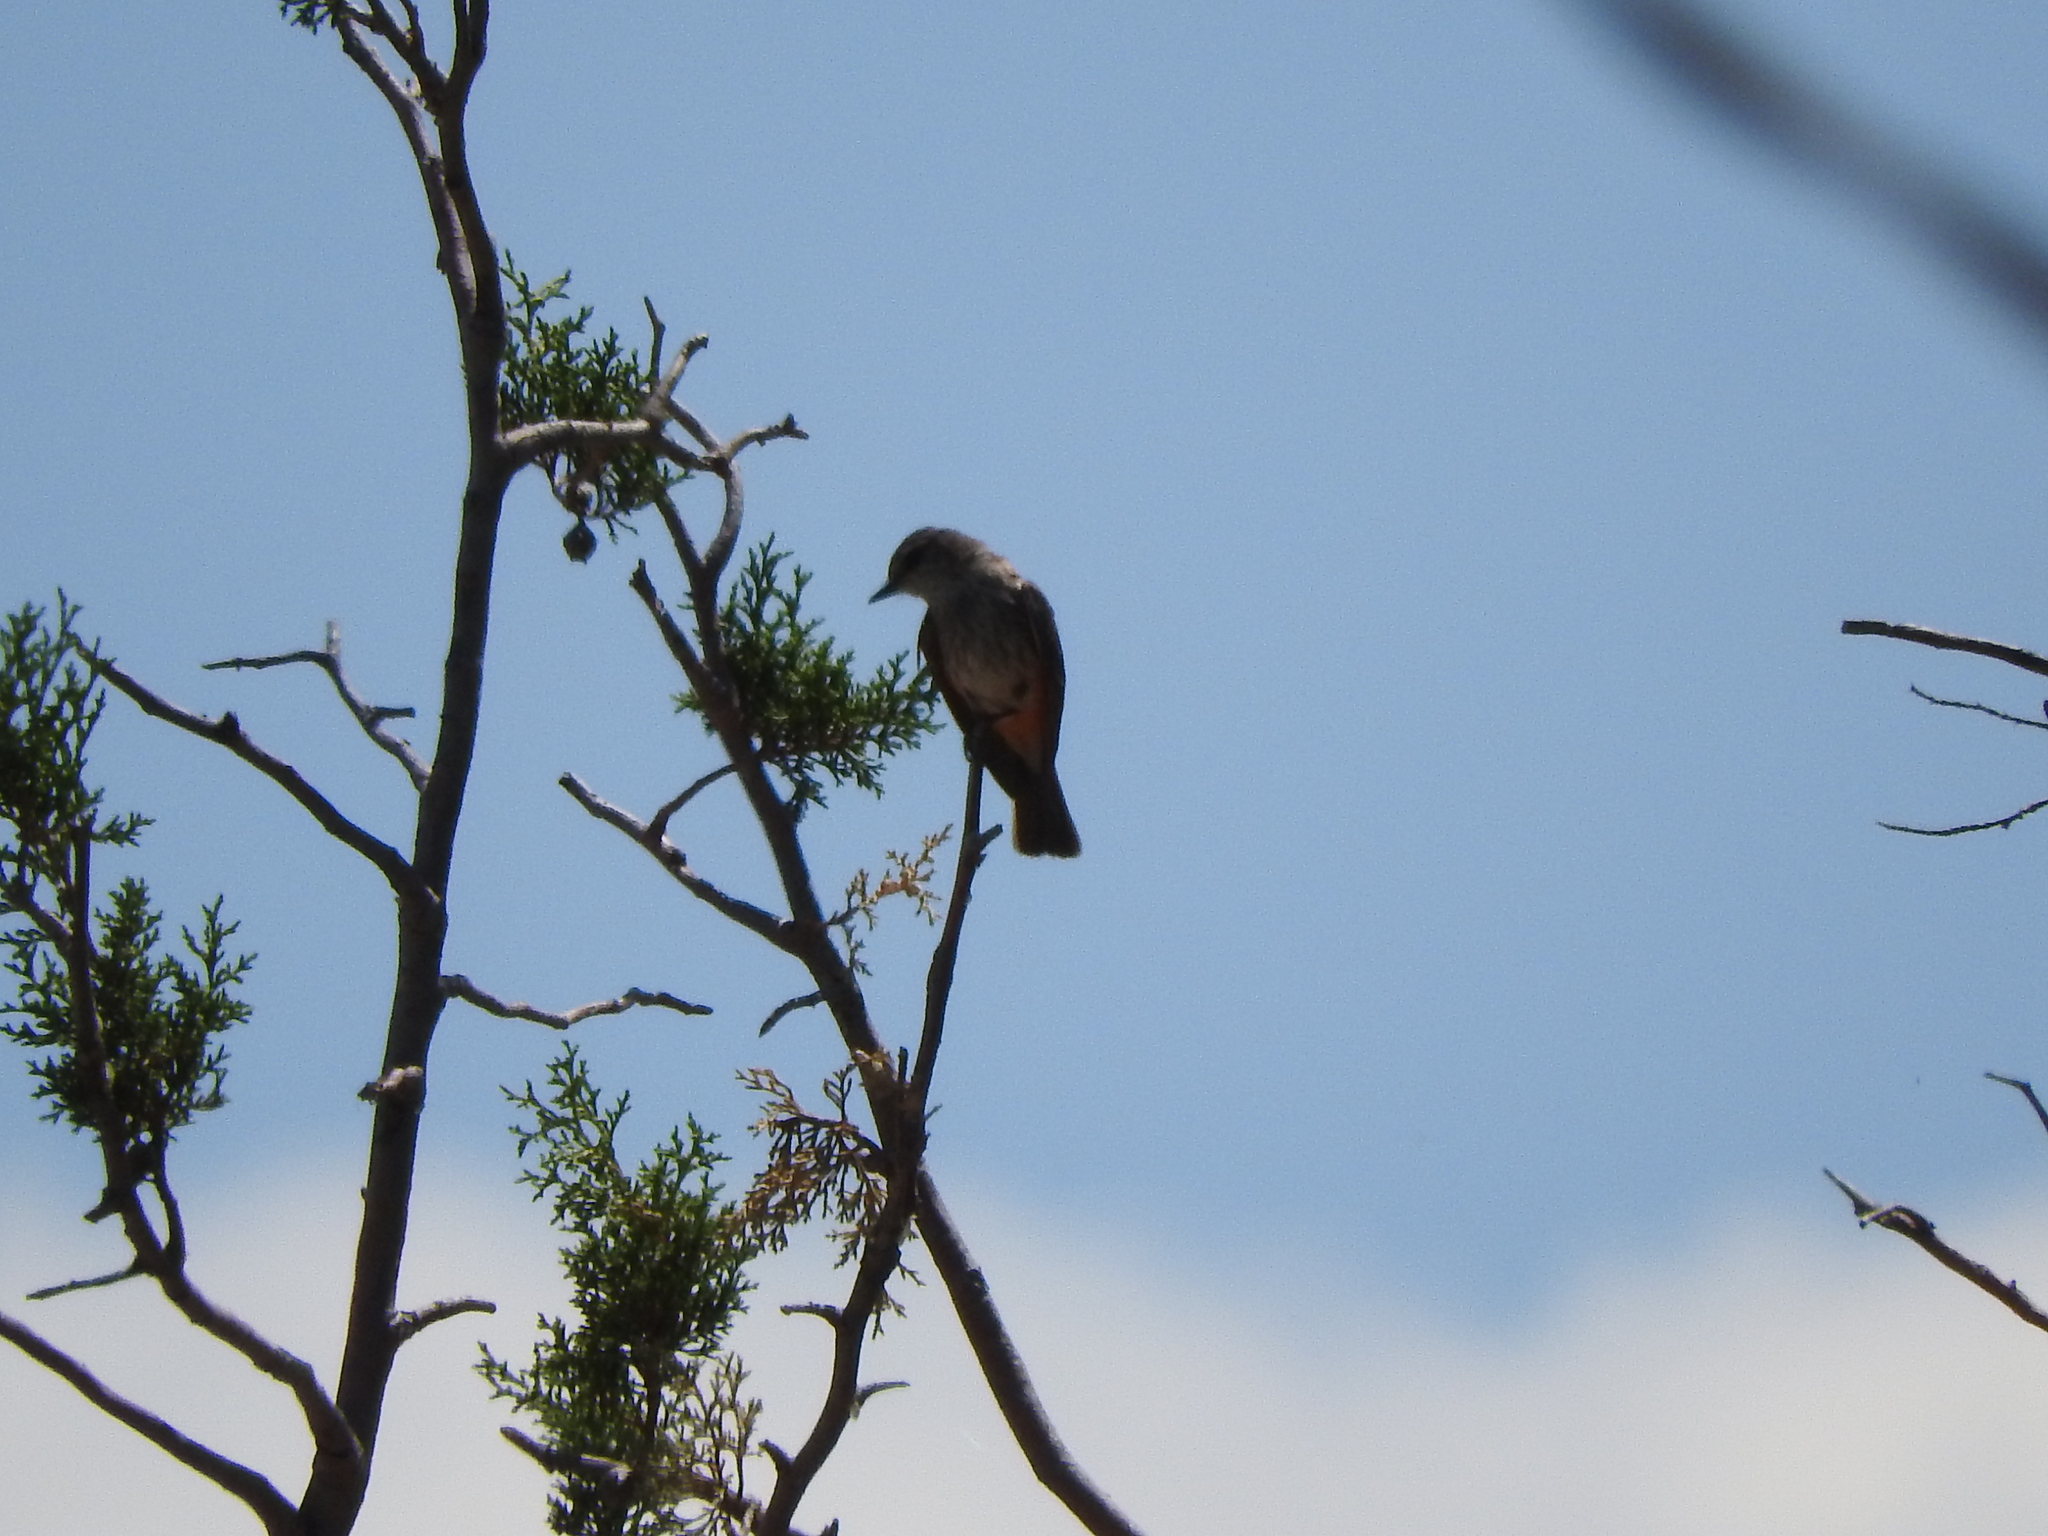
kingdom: Animalia
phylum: Chordata
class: Aves
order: Passeriformes
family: Tyrannidae
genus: Pyrocephalus
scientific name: Pyrocephalus rubinus
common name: Vermilion flycatcher
